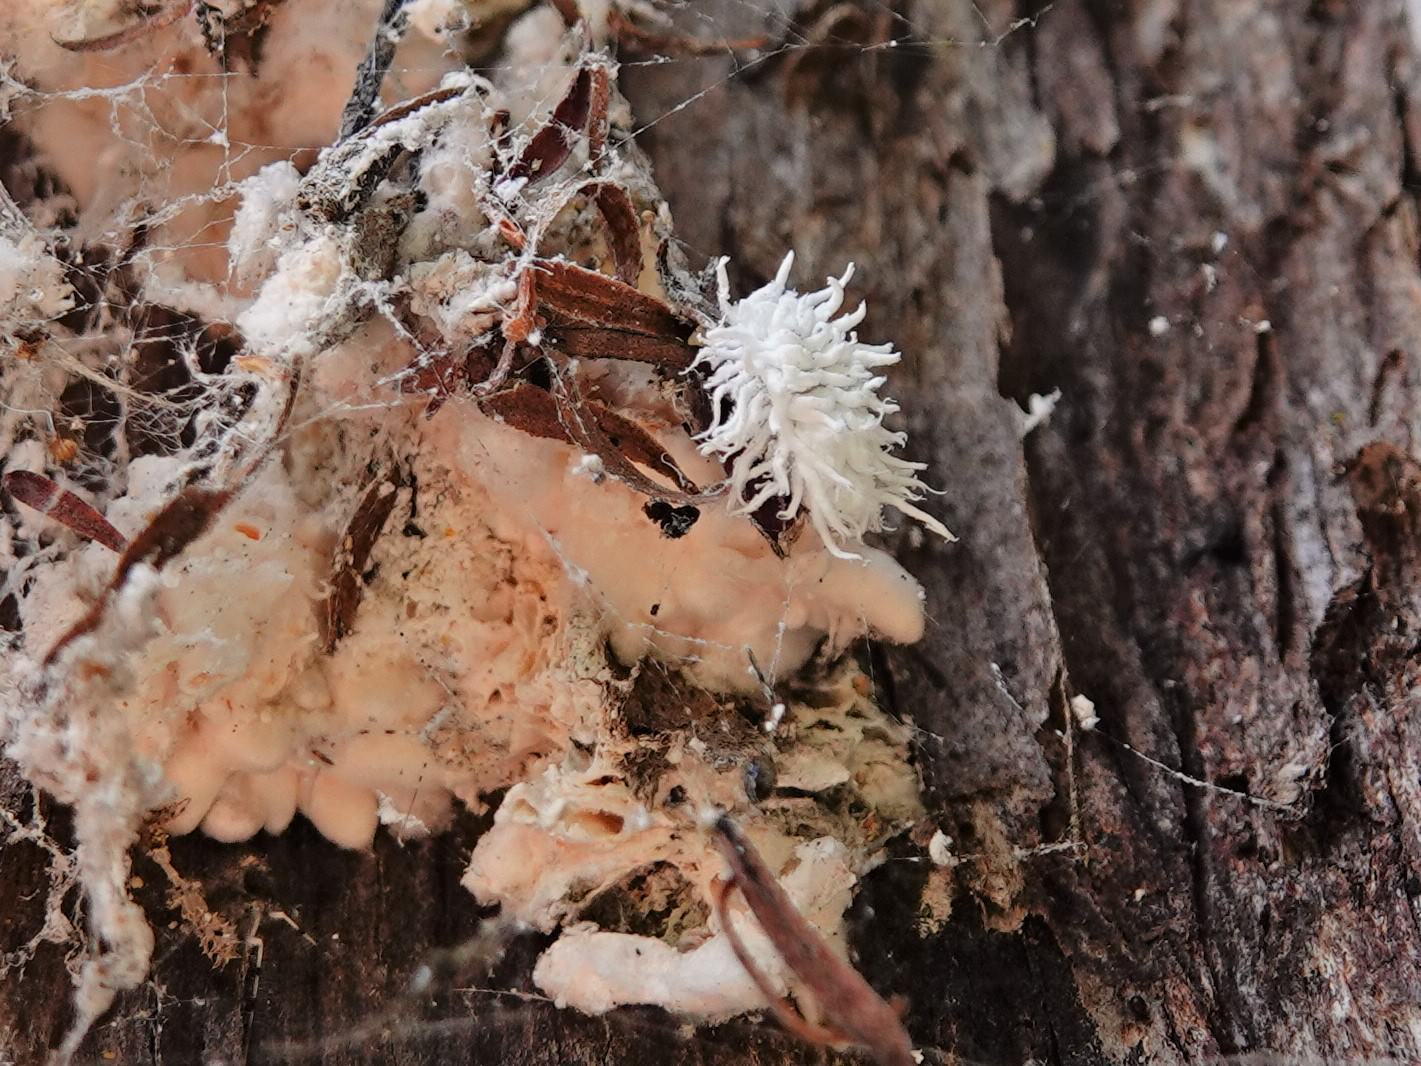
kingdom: Animalia
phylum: Arthropoda
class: Insecta
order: Coleoptera
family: Coccinellidae
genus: Cryptolaemus
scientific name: Cryptolaemus montrouzieri
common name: Mealybug destroyer
